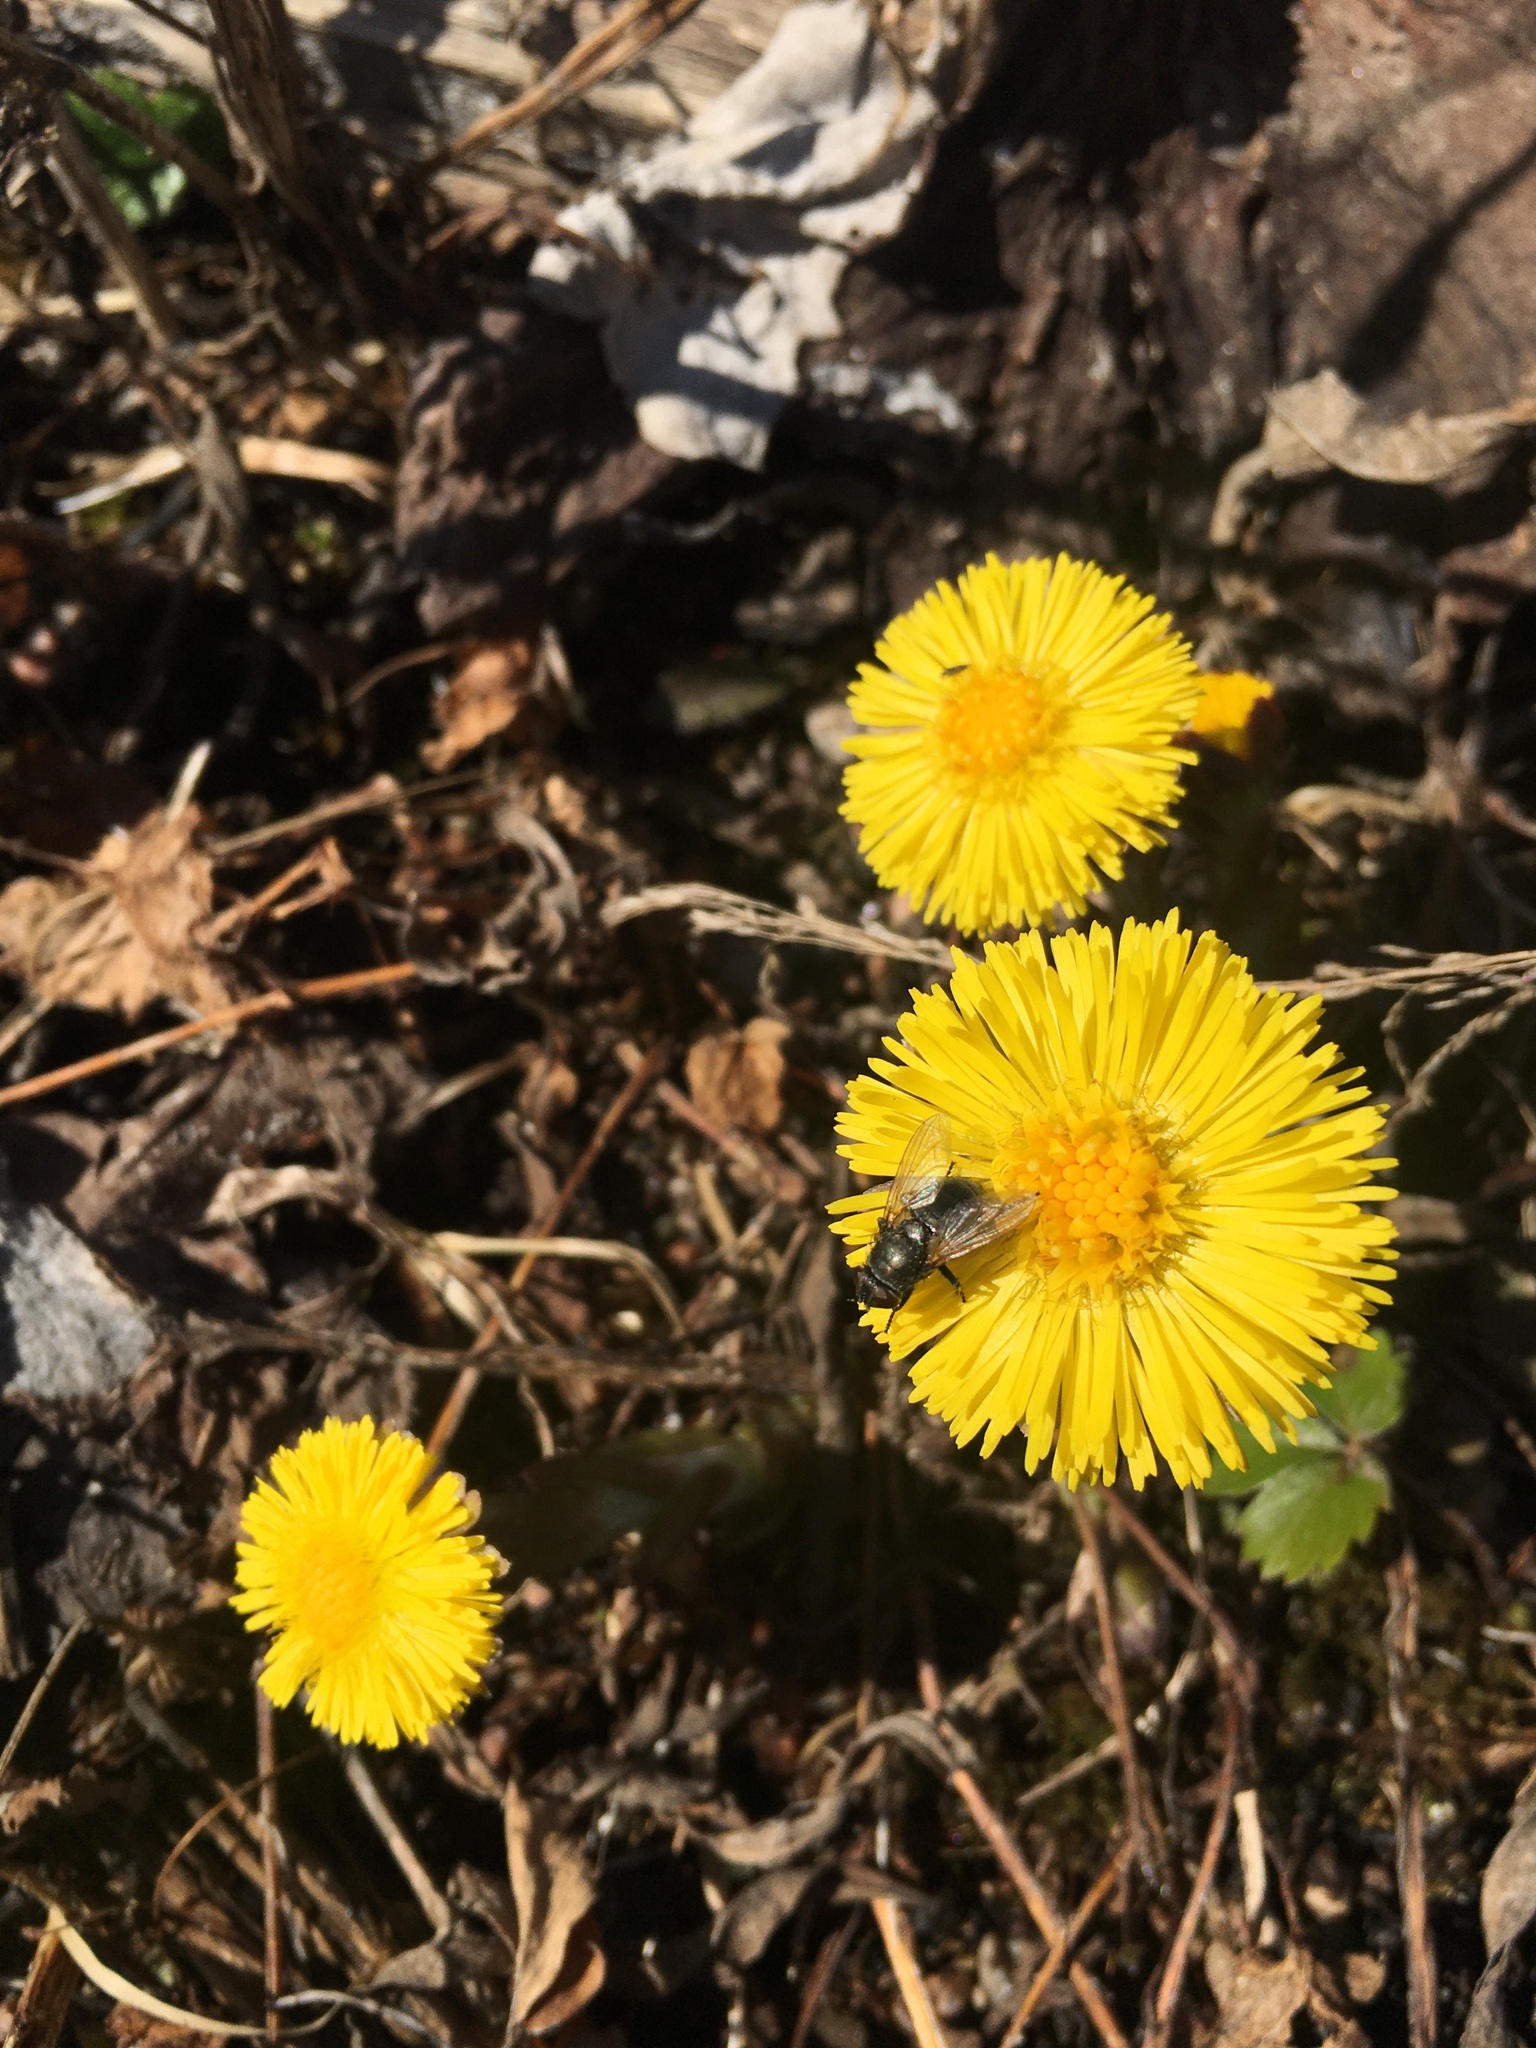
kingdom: Plantae
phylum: Tracheophyta
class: Magnoliopsida
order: Asterales
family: Asteraceae
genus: Tussilago
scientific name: Tussilago farfara
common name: Coltsfoot
